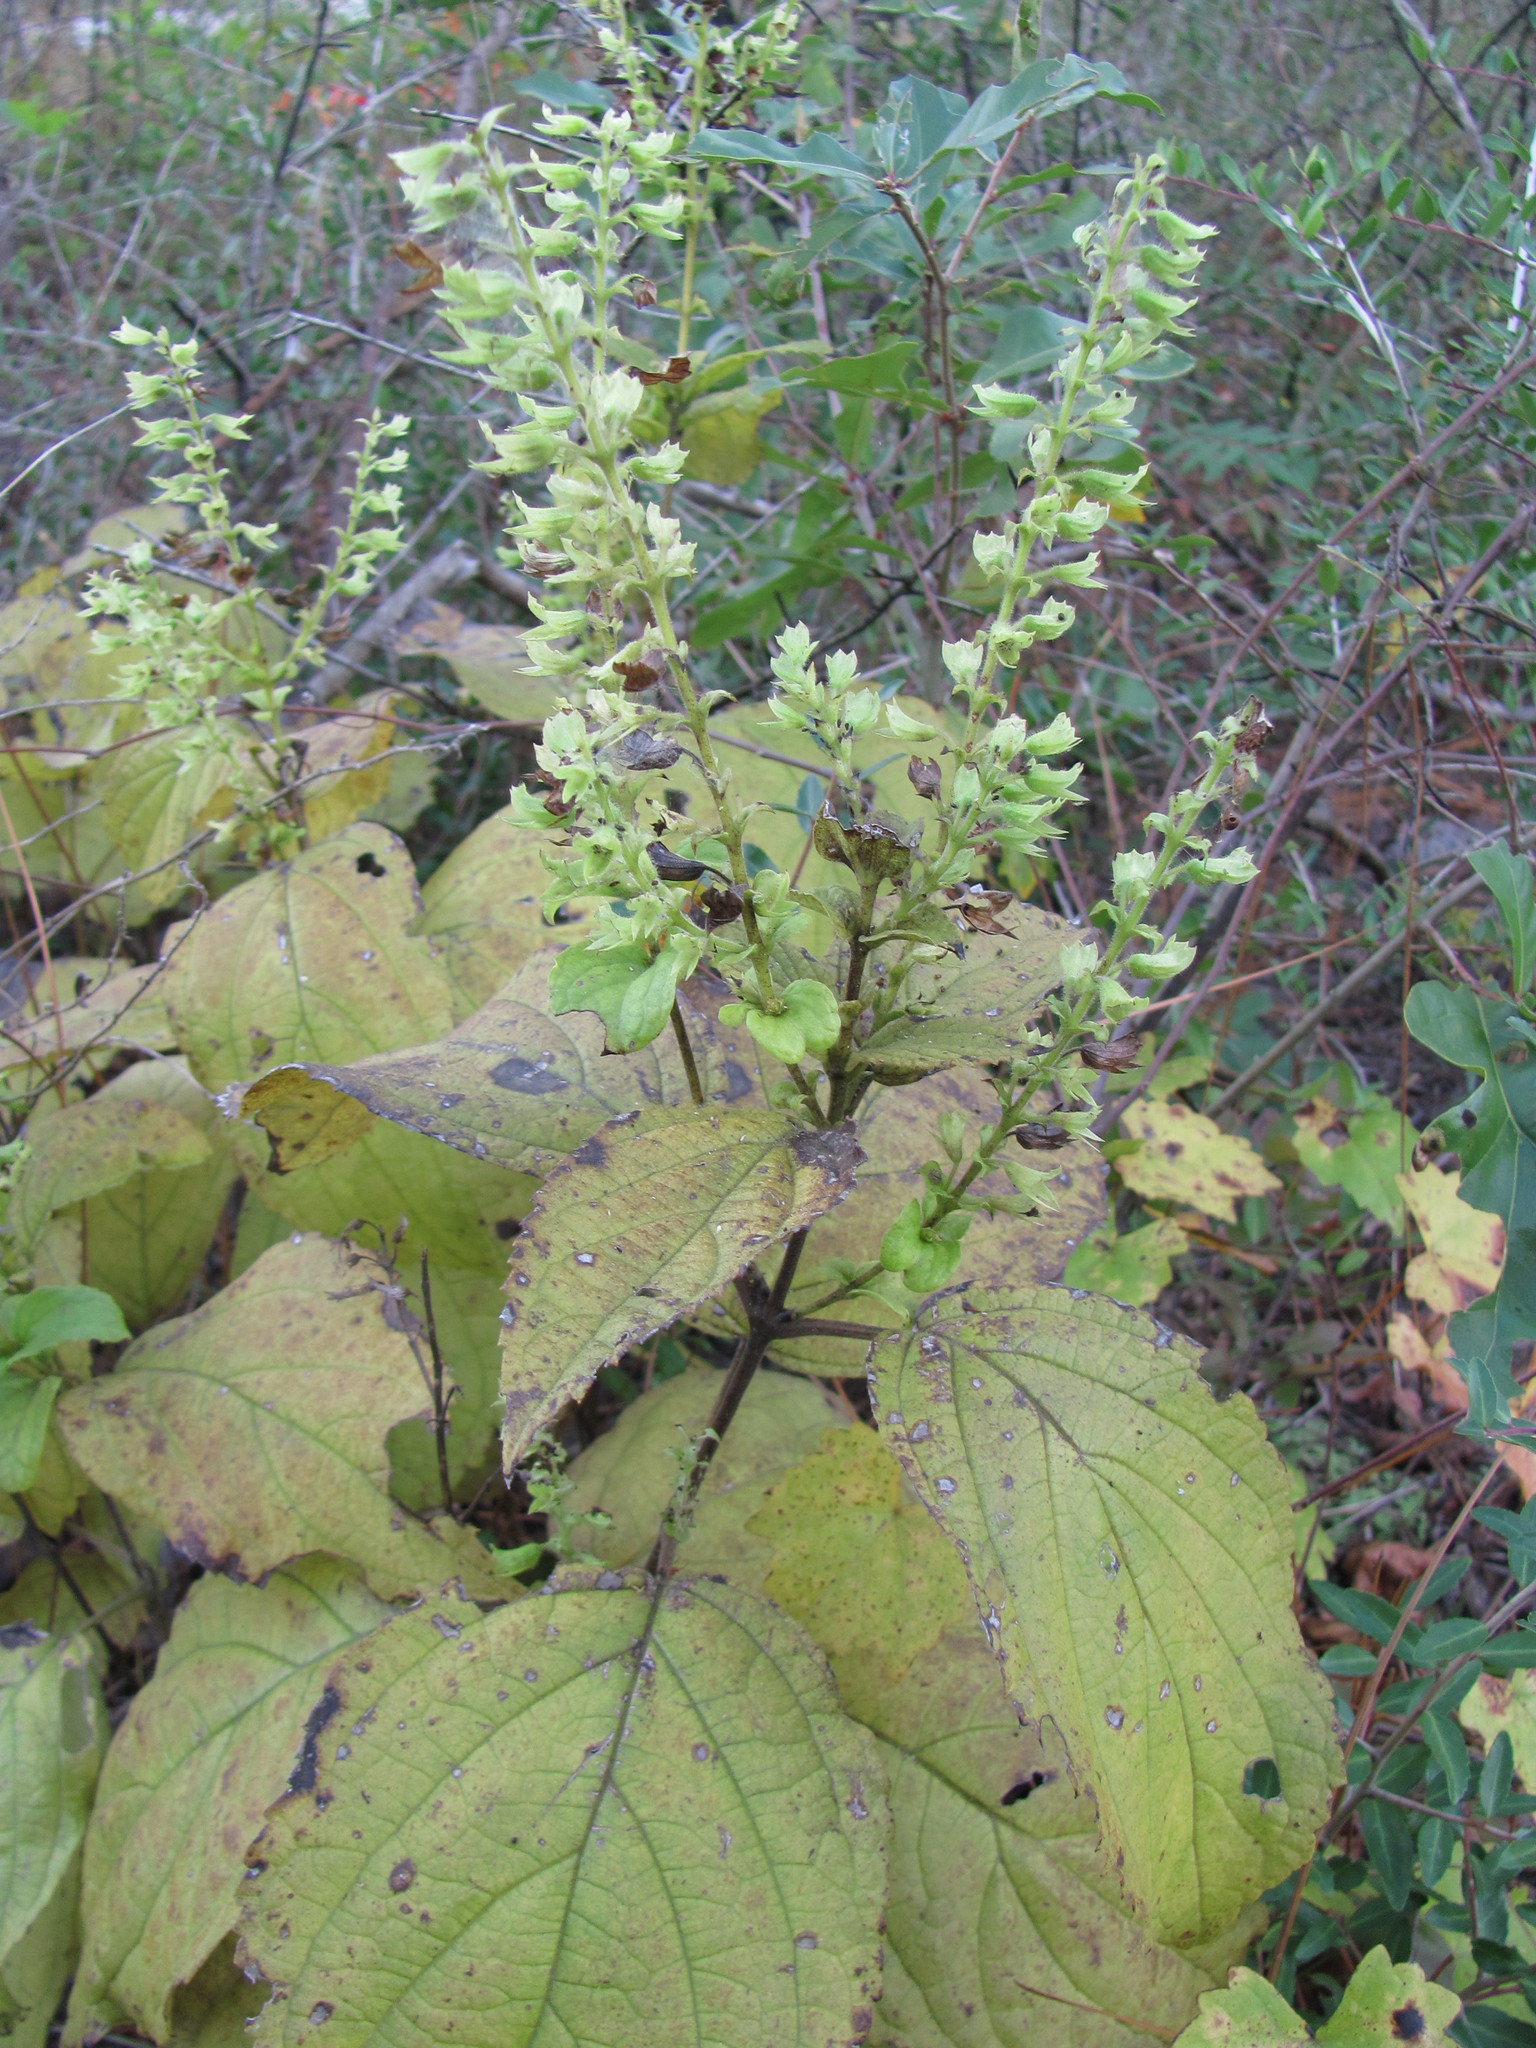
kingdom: Plantae
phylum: Tracheophyta
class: Magnoliopsida
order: Lamiales
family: Lamiaceae
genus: Collinsonia
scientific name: Collinsonia anisata
